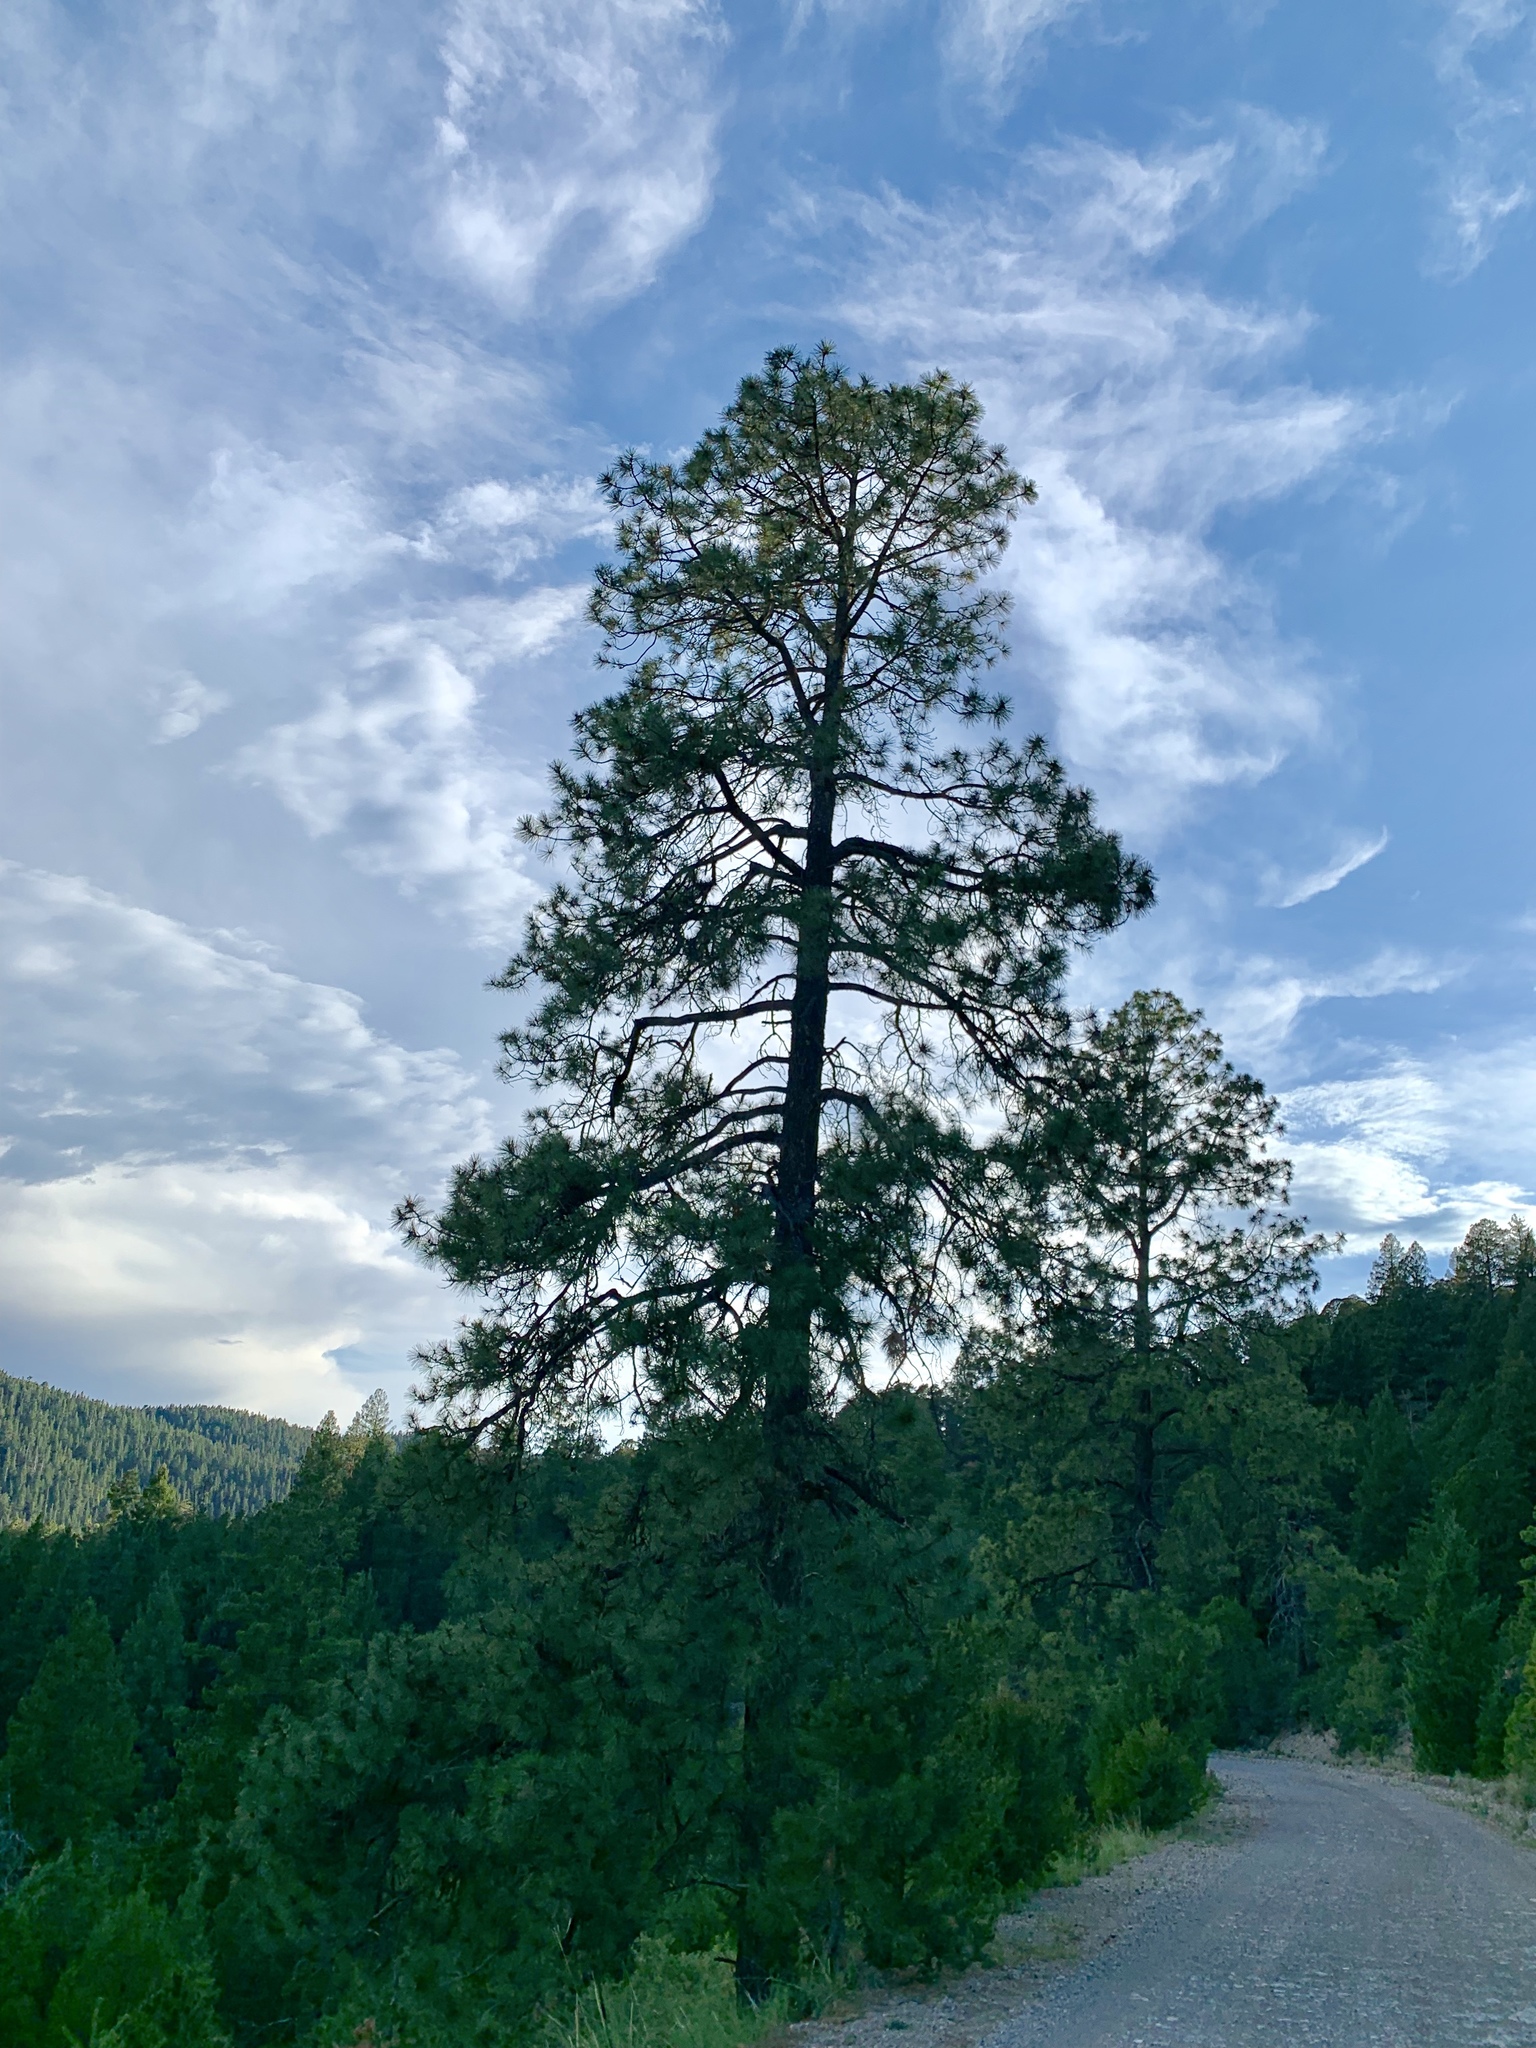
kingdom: Plantae
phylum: Tracheophyta
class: Pinopsida
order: Pinales
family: Pinaceae
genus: Pinus
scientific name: Pinus ponderosa
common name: Western yellow-pine
